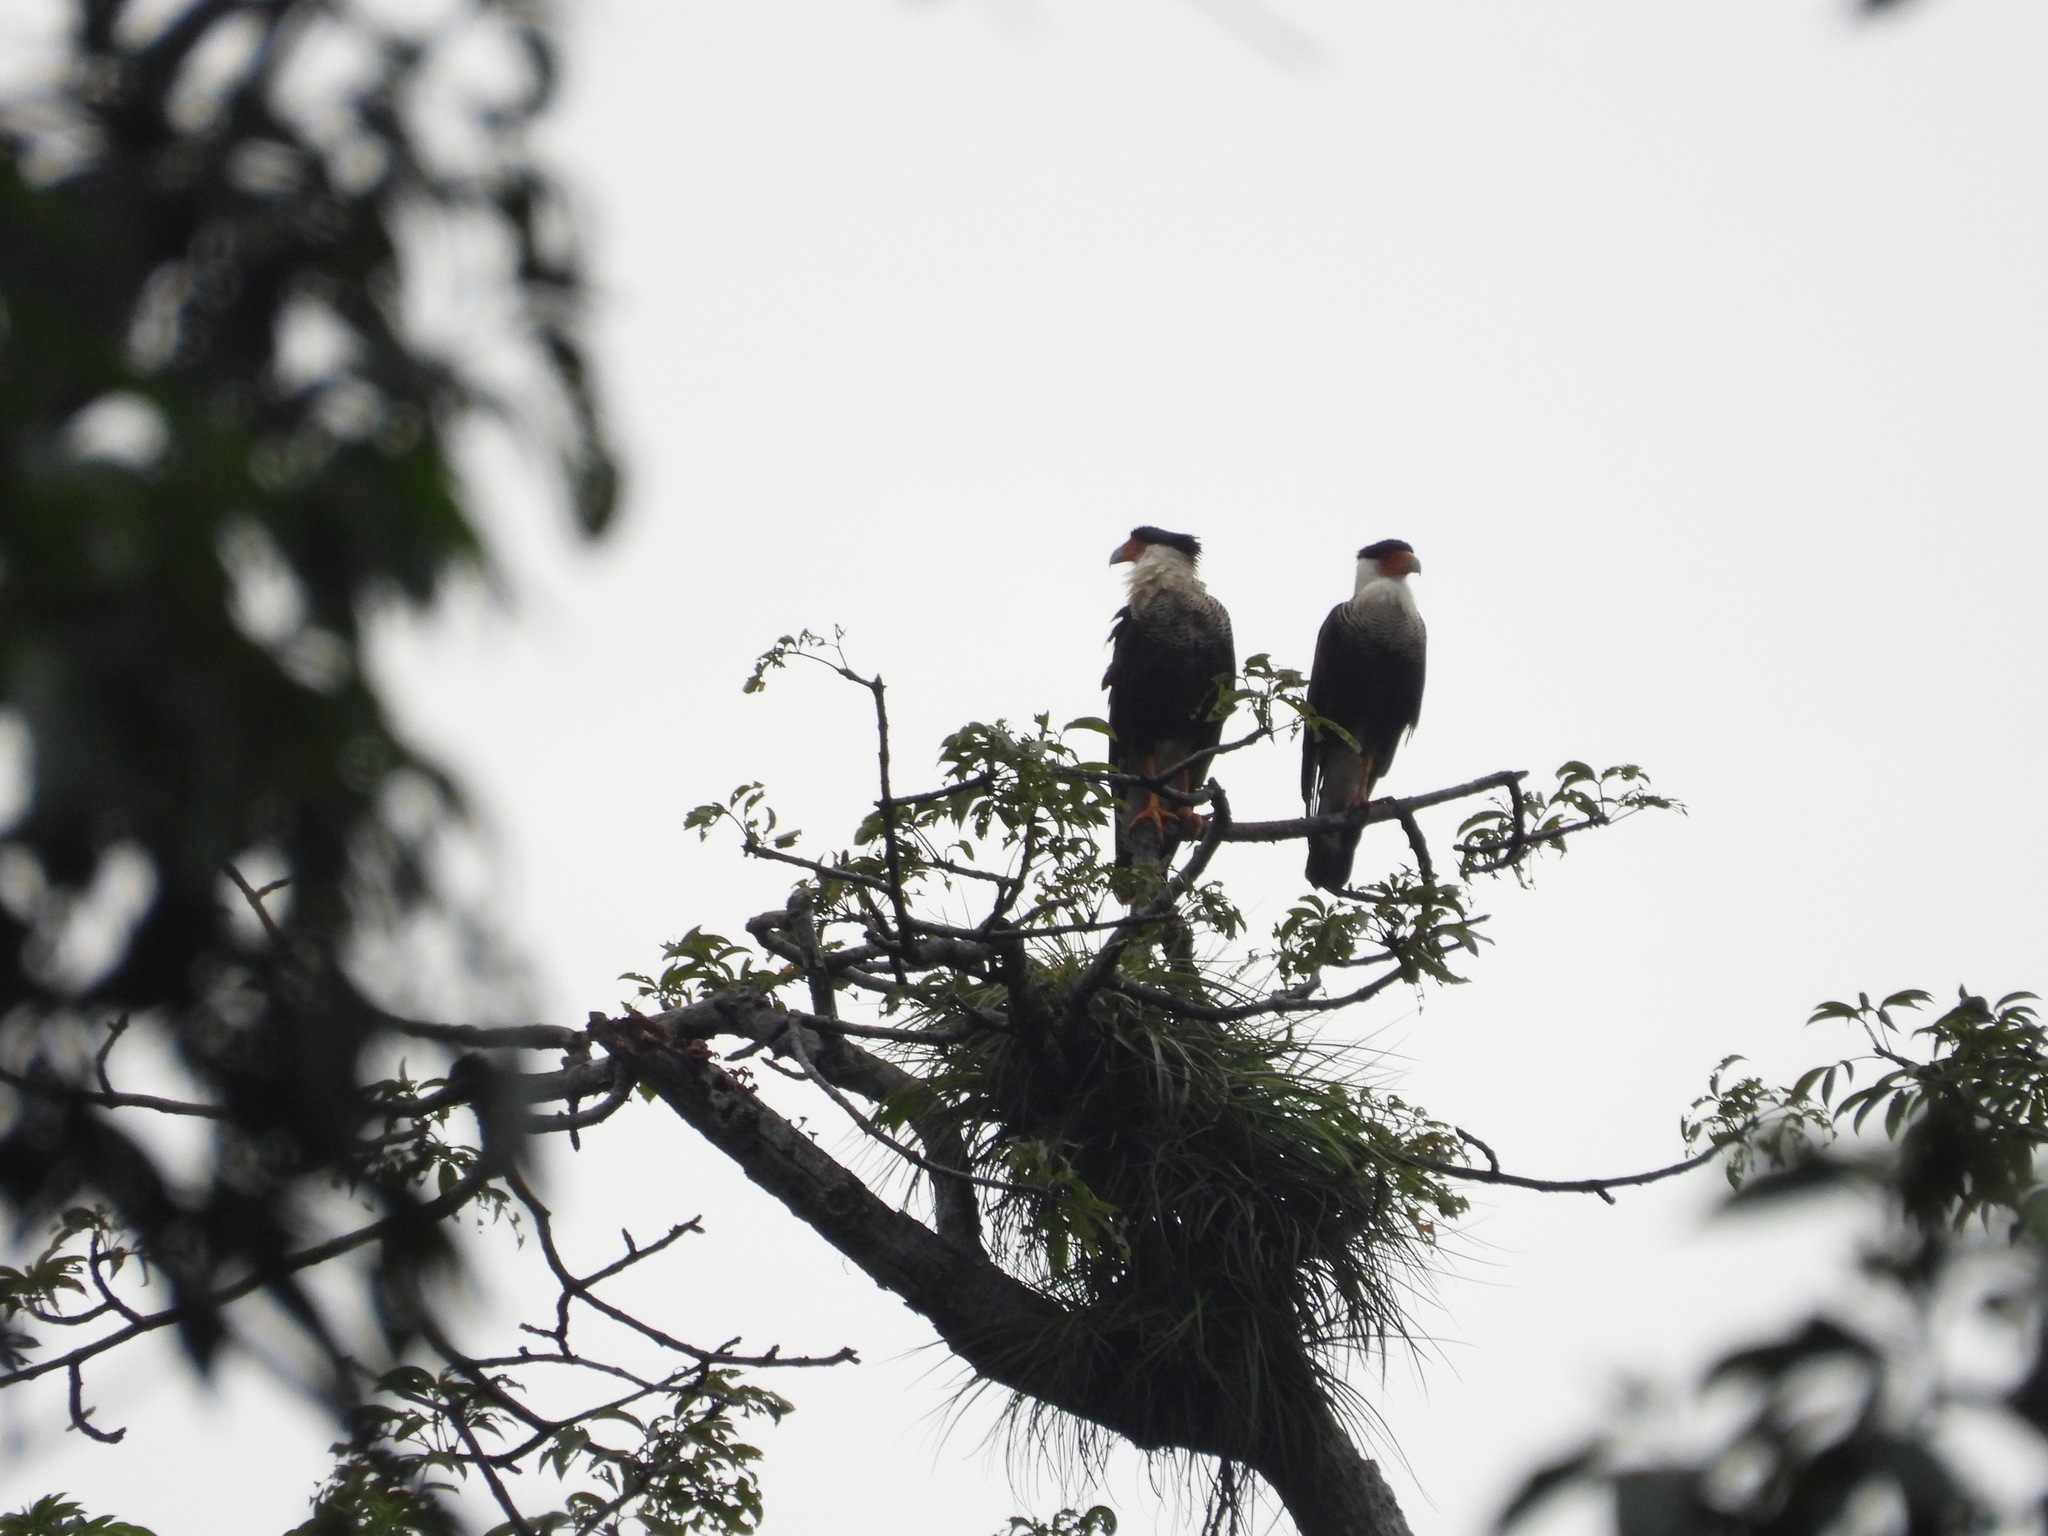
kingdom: Animalia
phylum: Chordata
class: Aves
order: Falconiformes
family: Falconidae
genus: Caracara
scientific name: Caracara plancus
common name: Southern caracara
